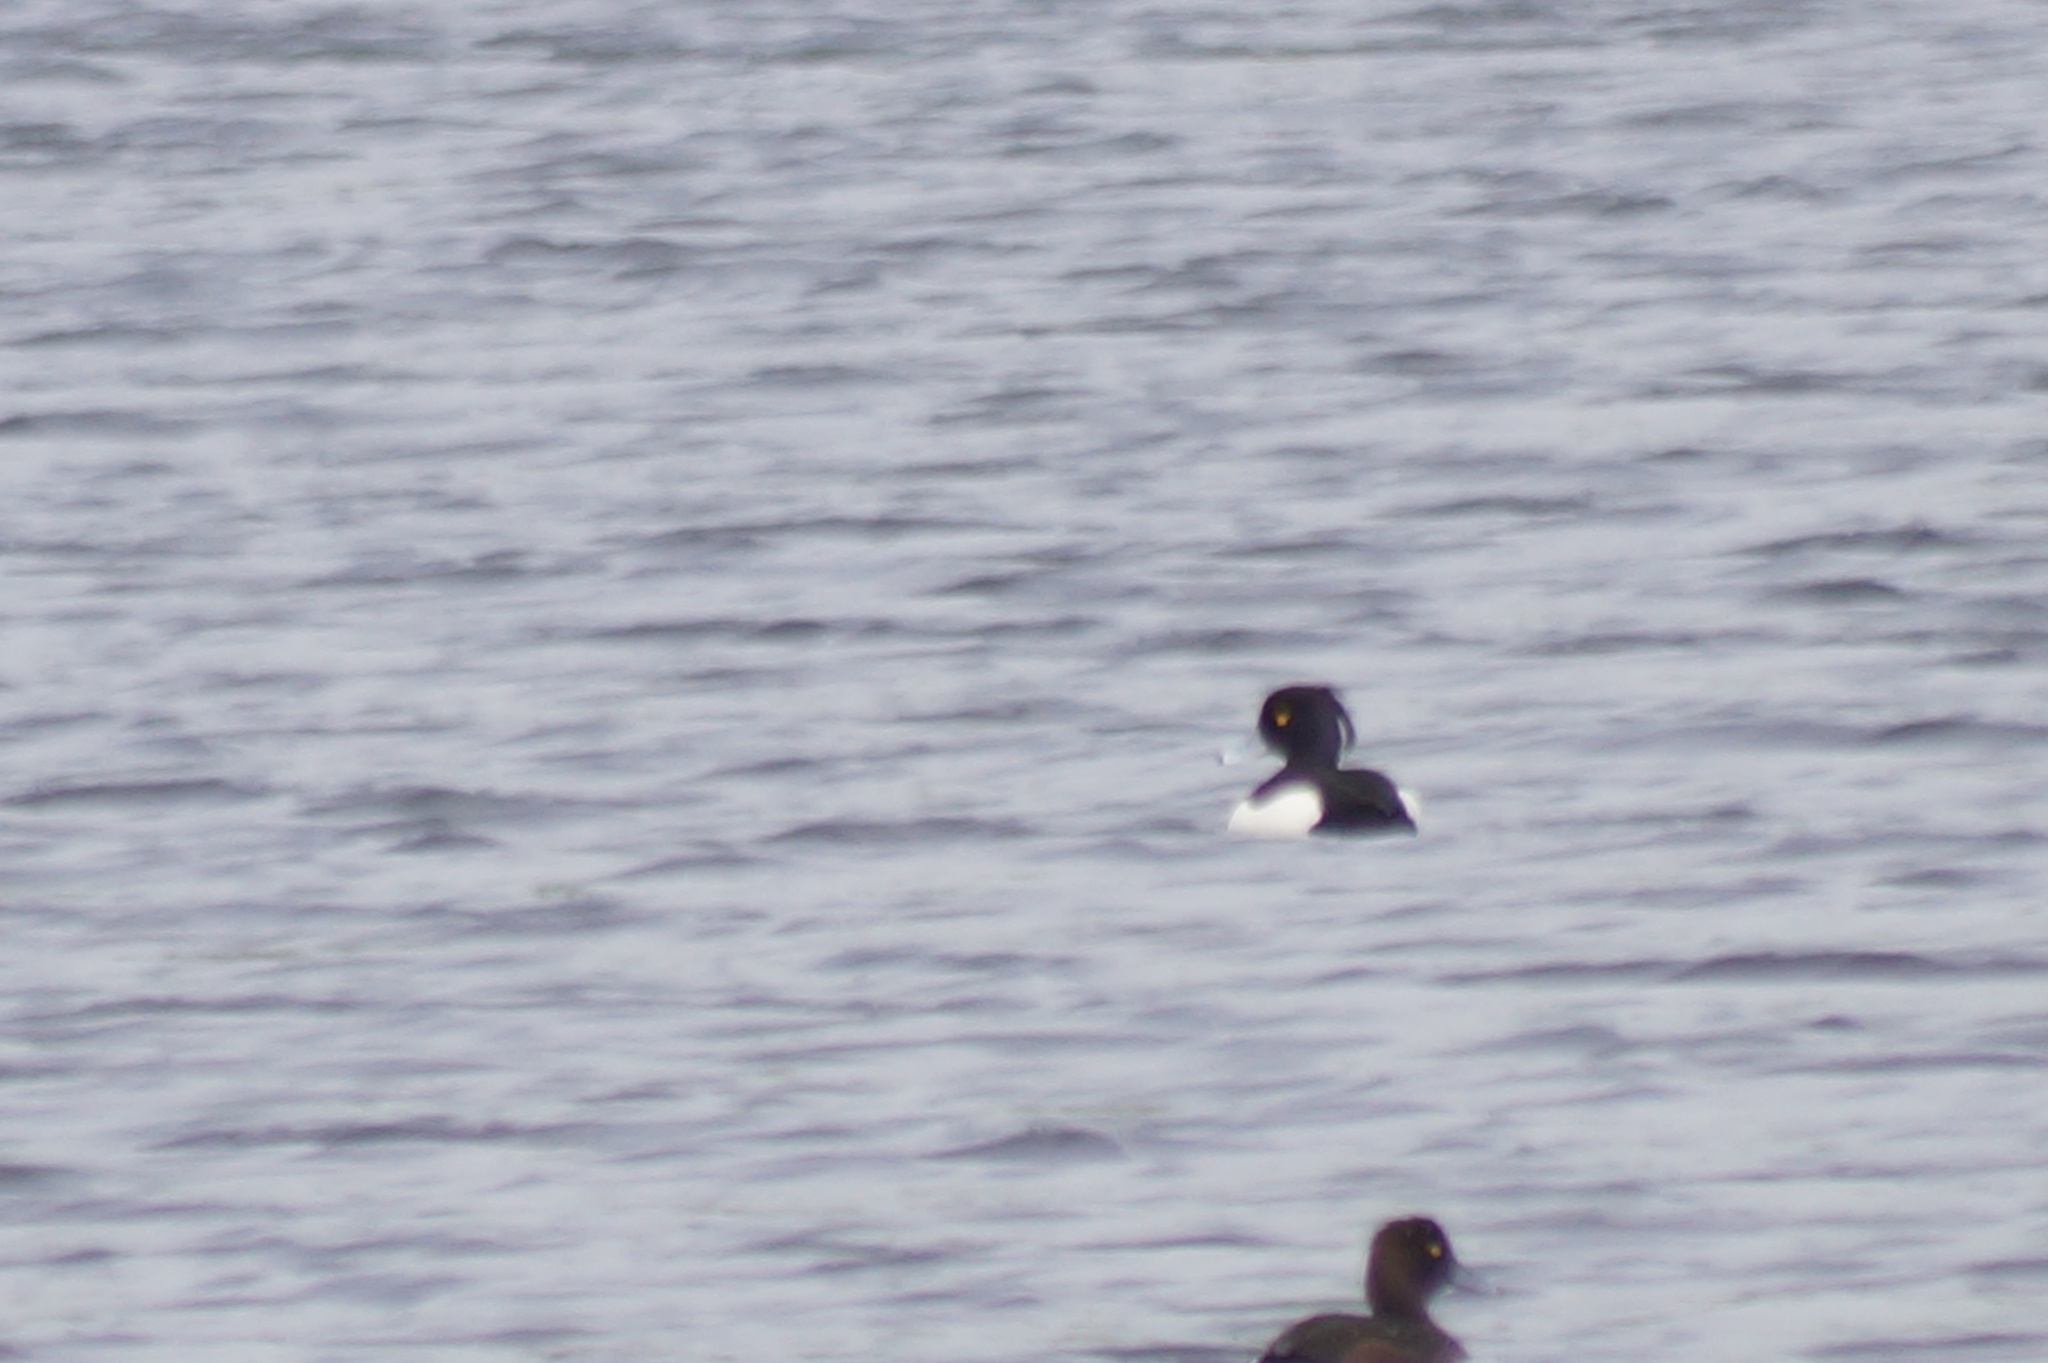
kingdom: Animalia
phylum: Chordata
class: Aves
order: Anseriformes
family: Anatidae
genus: Aythya
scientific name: Aythya fuligula
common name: Tufted duck
